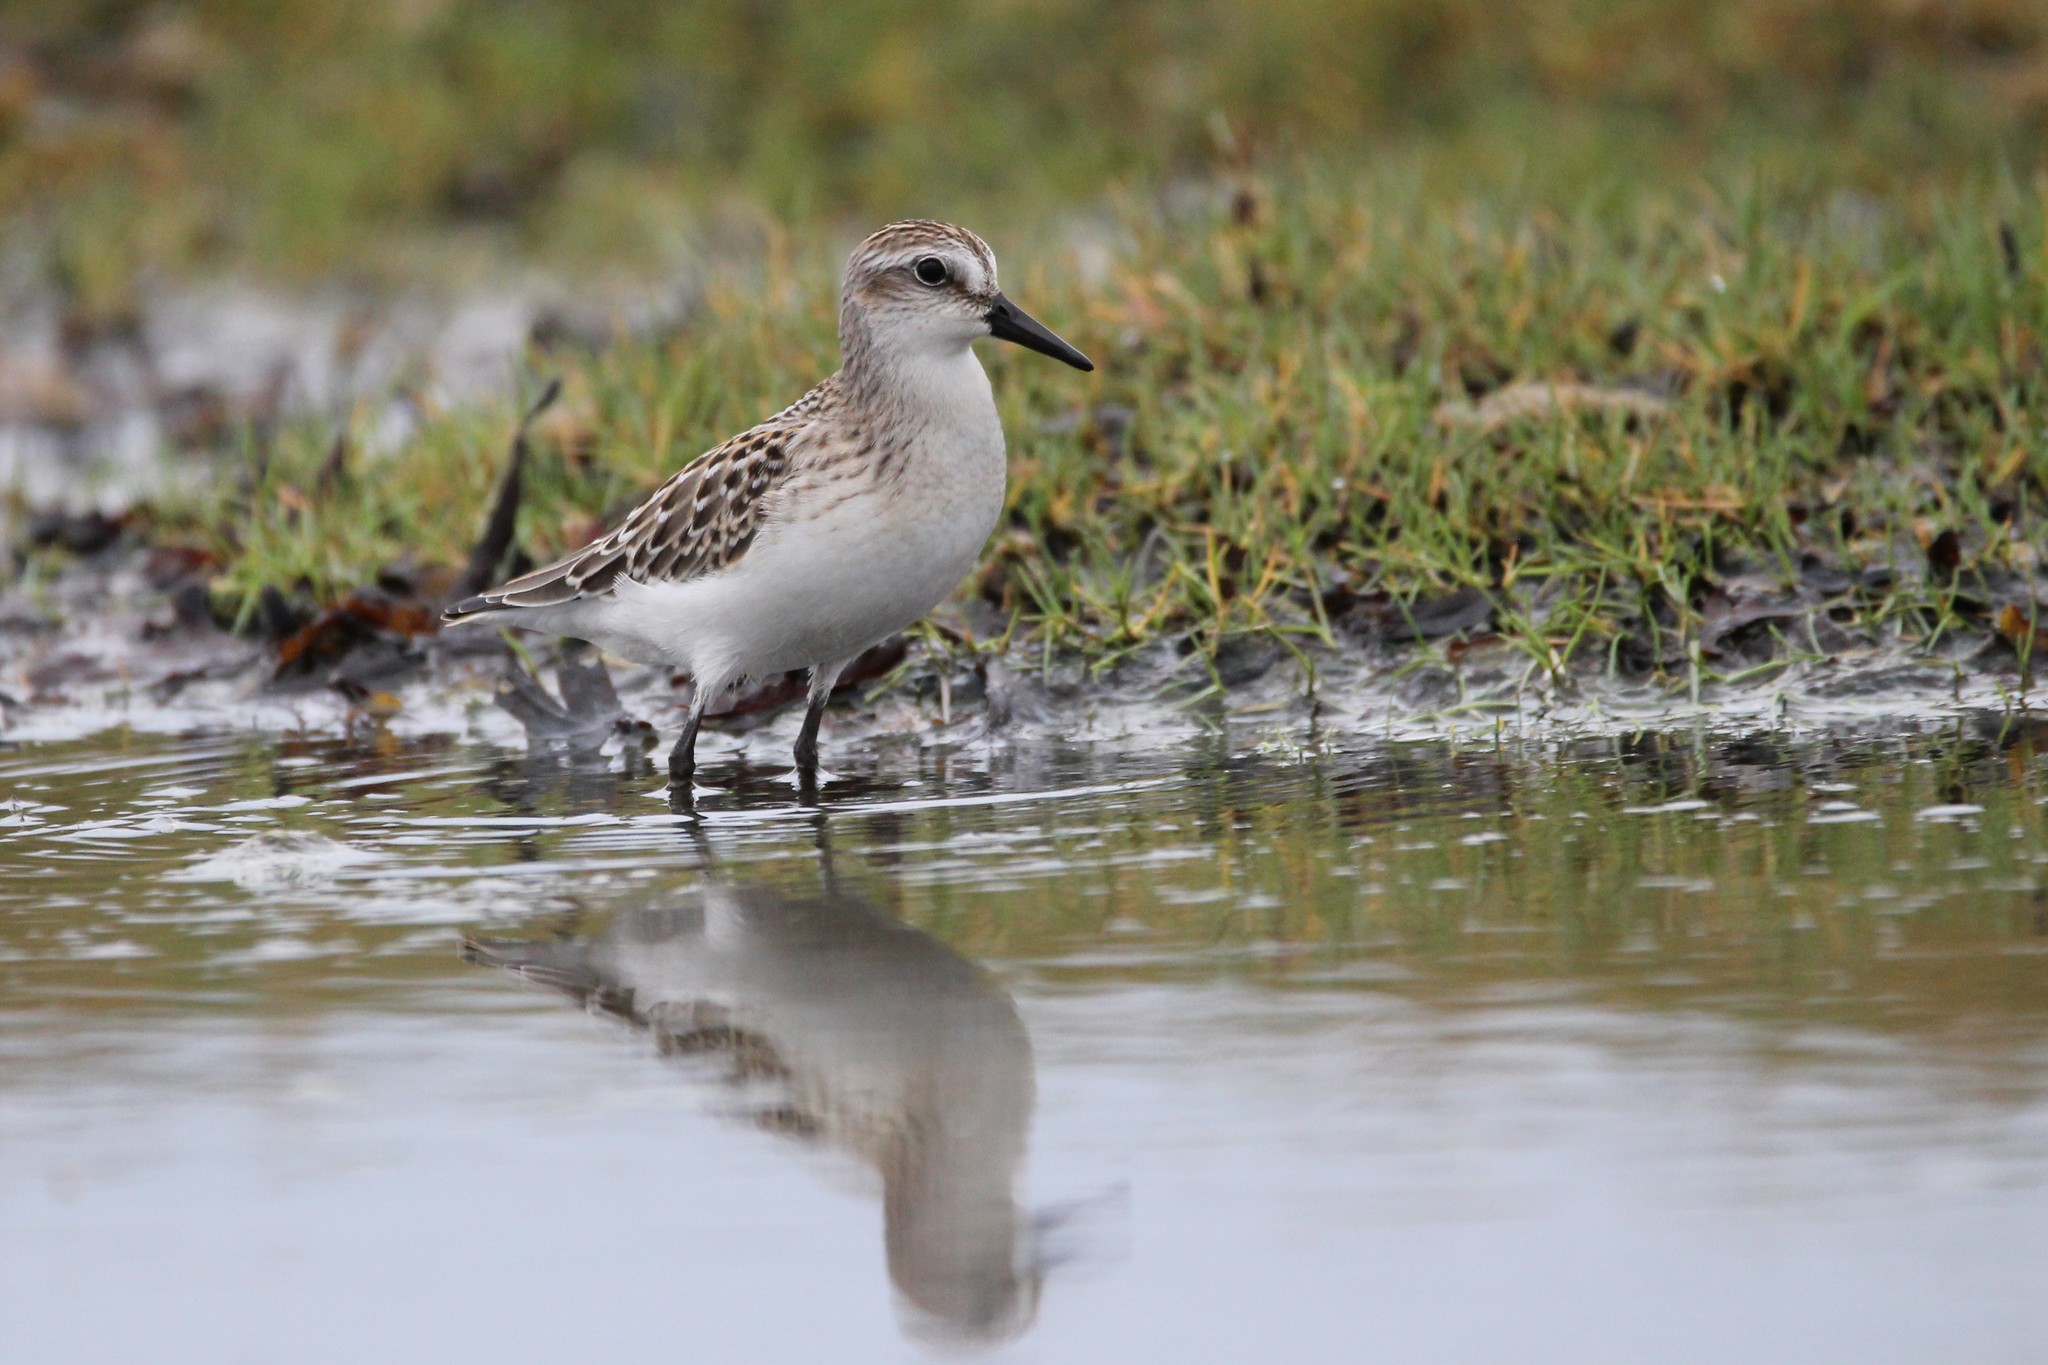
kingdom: Animalia
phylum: Chordata
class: Aves
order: Charadriiformes
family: Scolopacidae
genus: Calidris
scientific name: Calidris pusilla
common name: Semipalmated sandpiper
